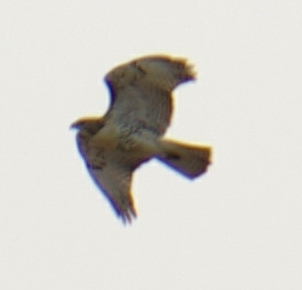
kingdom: Animalia
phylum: Chordata
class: Aves
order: Accipitriformes
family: Accipitridae
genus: Buteo
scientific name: Buteo jamaicensis
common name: Red-tailed hawk
